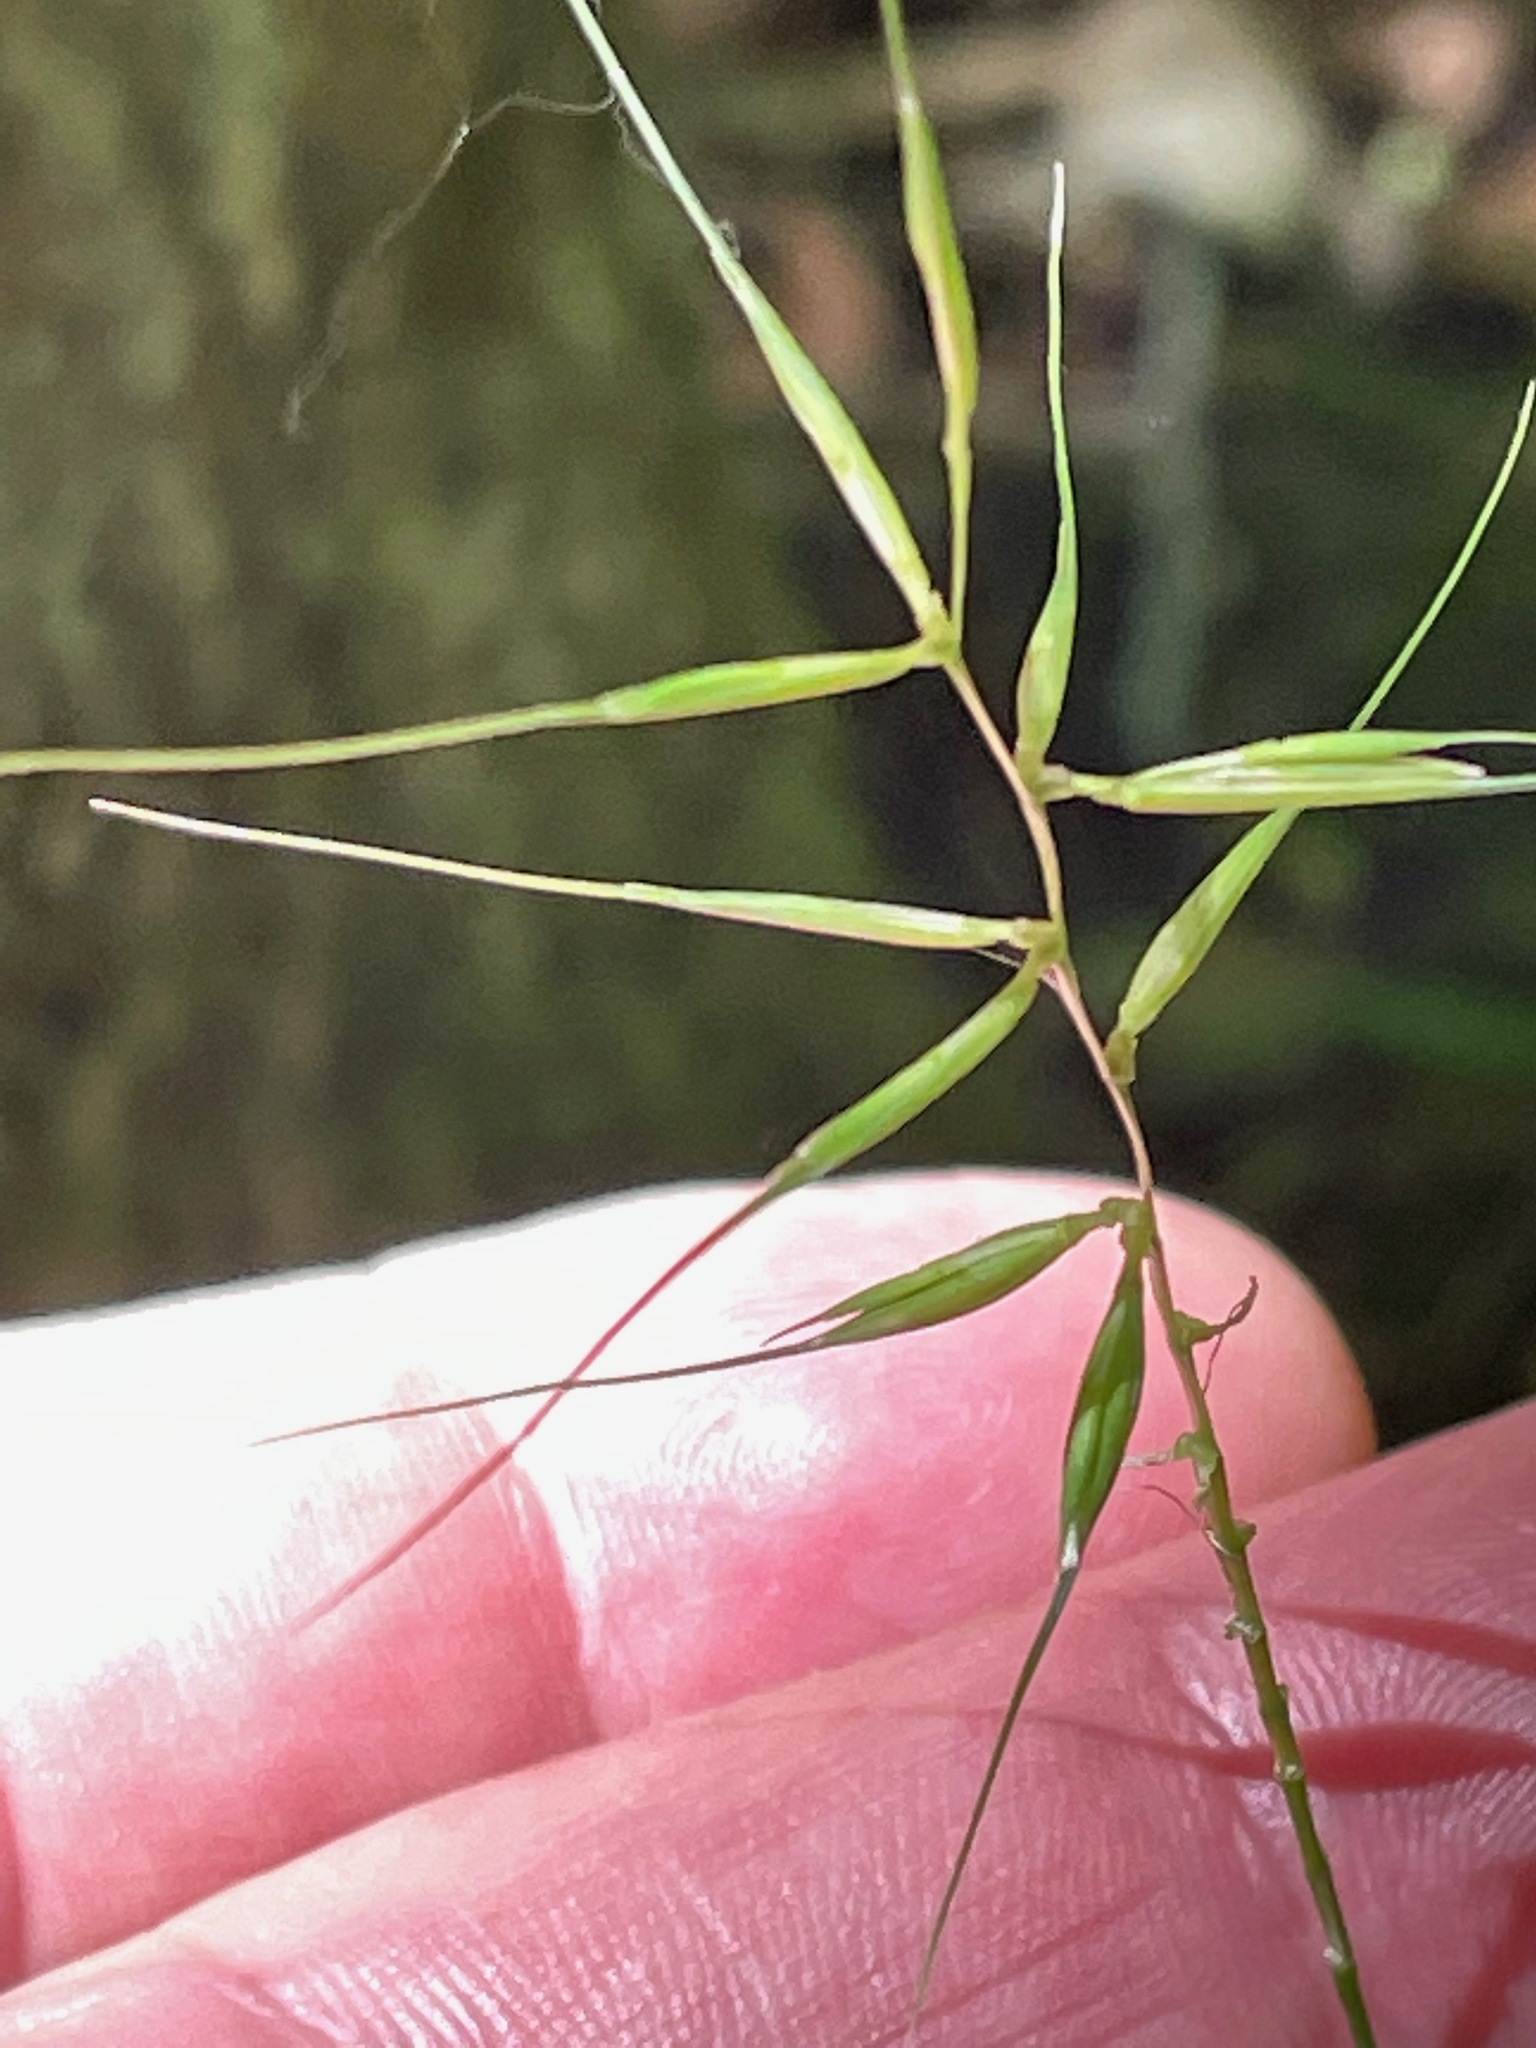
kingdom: Plantae
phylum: Tracheophyta
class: Liliopsida
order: Poales
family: Poaceae
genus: Elymus
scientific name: Elymus hystrix
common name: Bottlebrush grass
